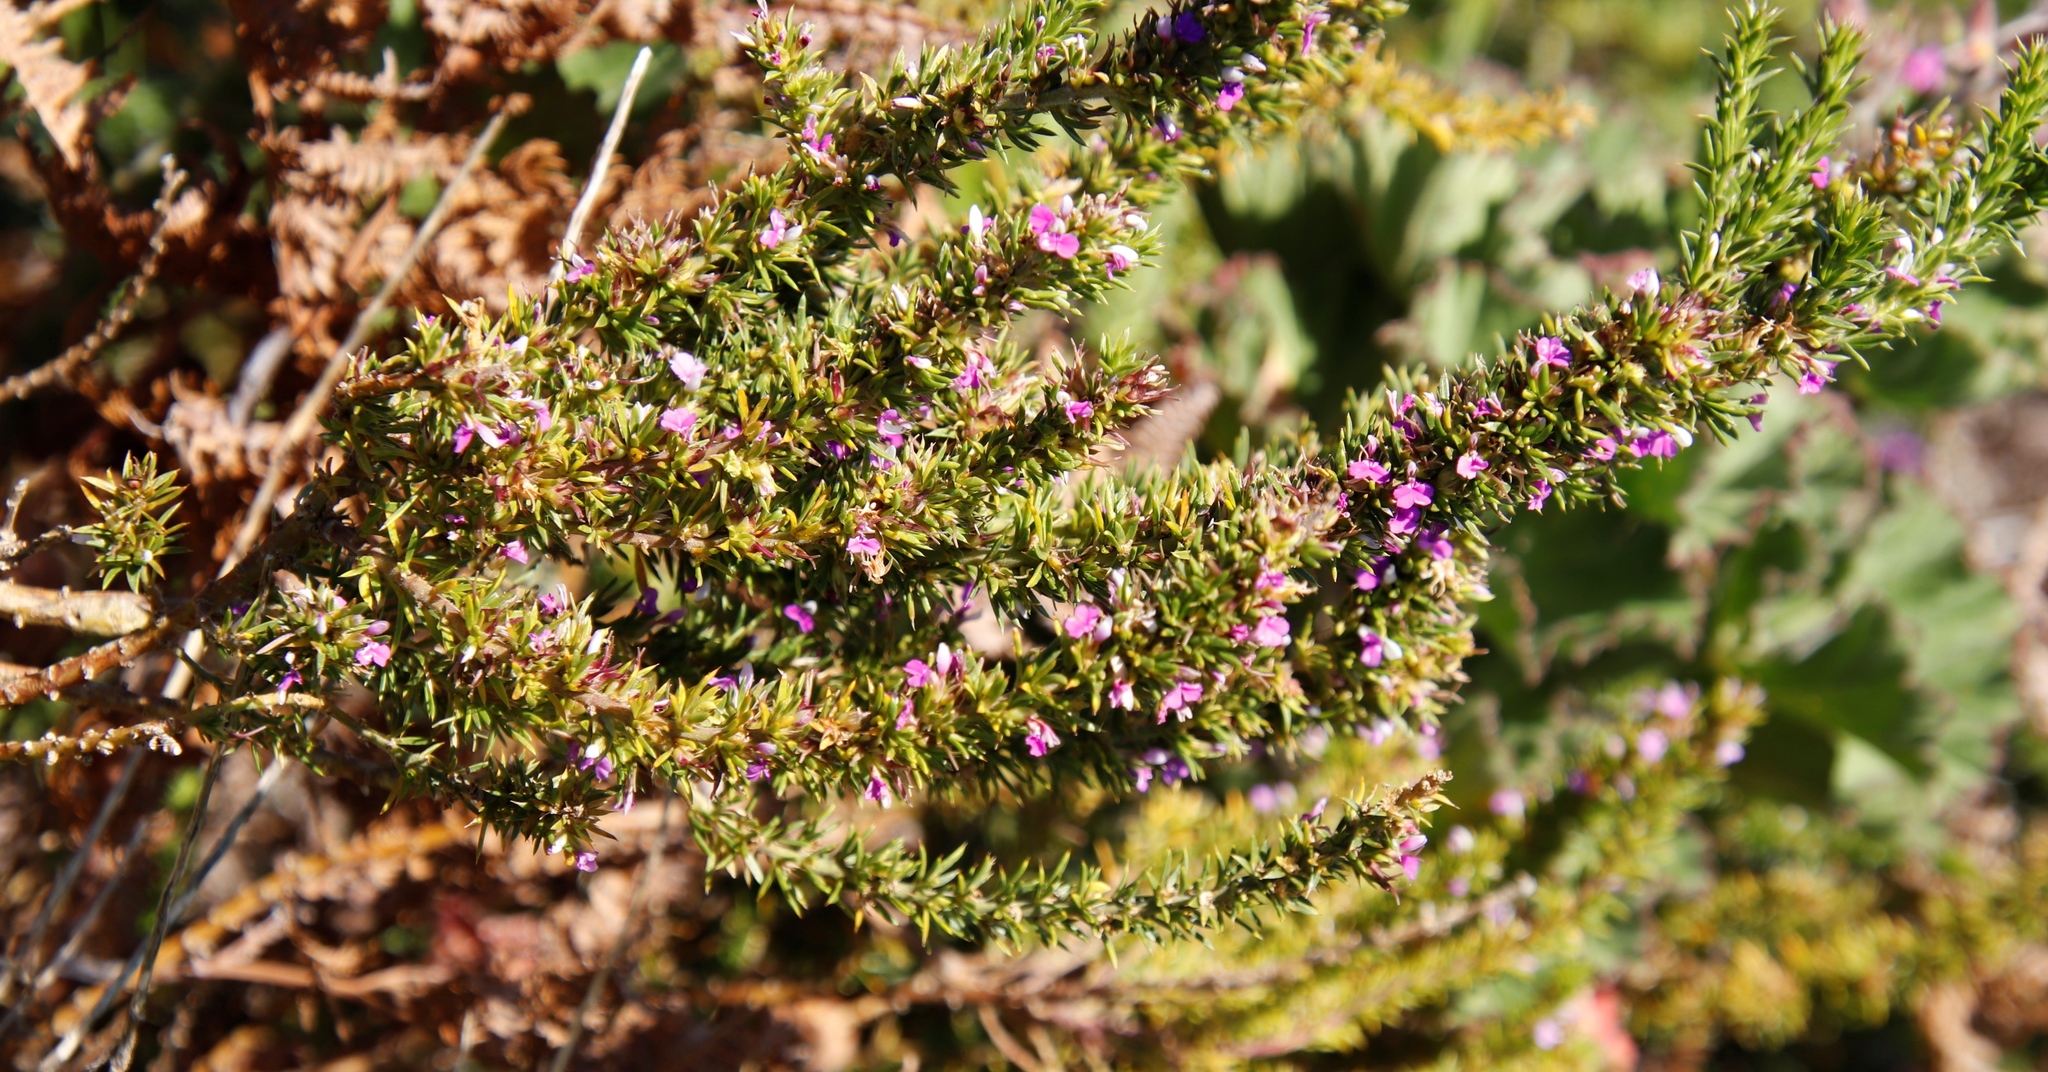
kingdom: Plantae
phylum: Tracheophyta
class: Magnoliopsida
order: Fabales
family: Polygalaceae
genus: Muraltia
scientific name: Muraltia heisteria
